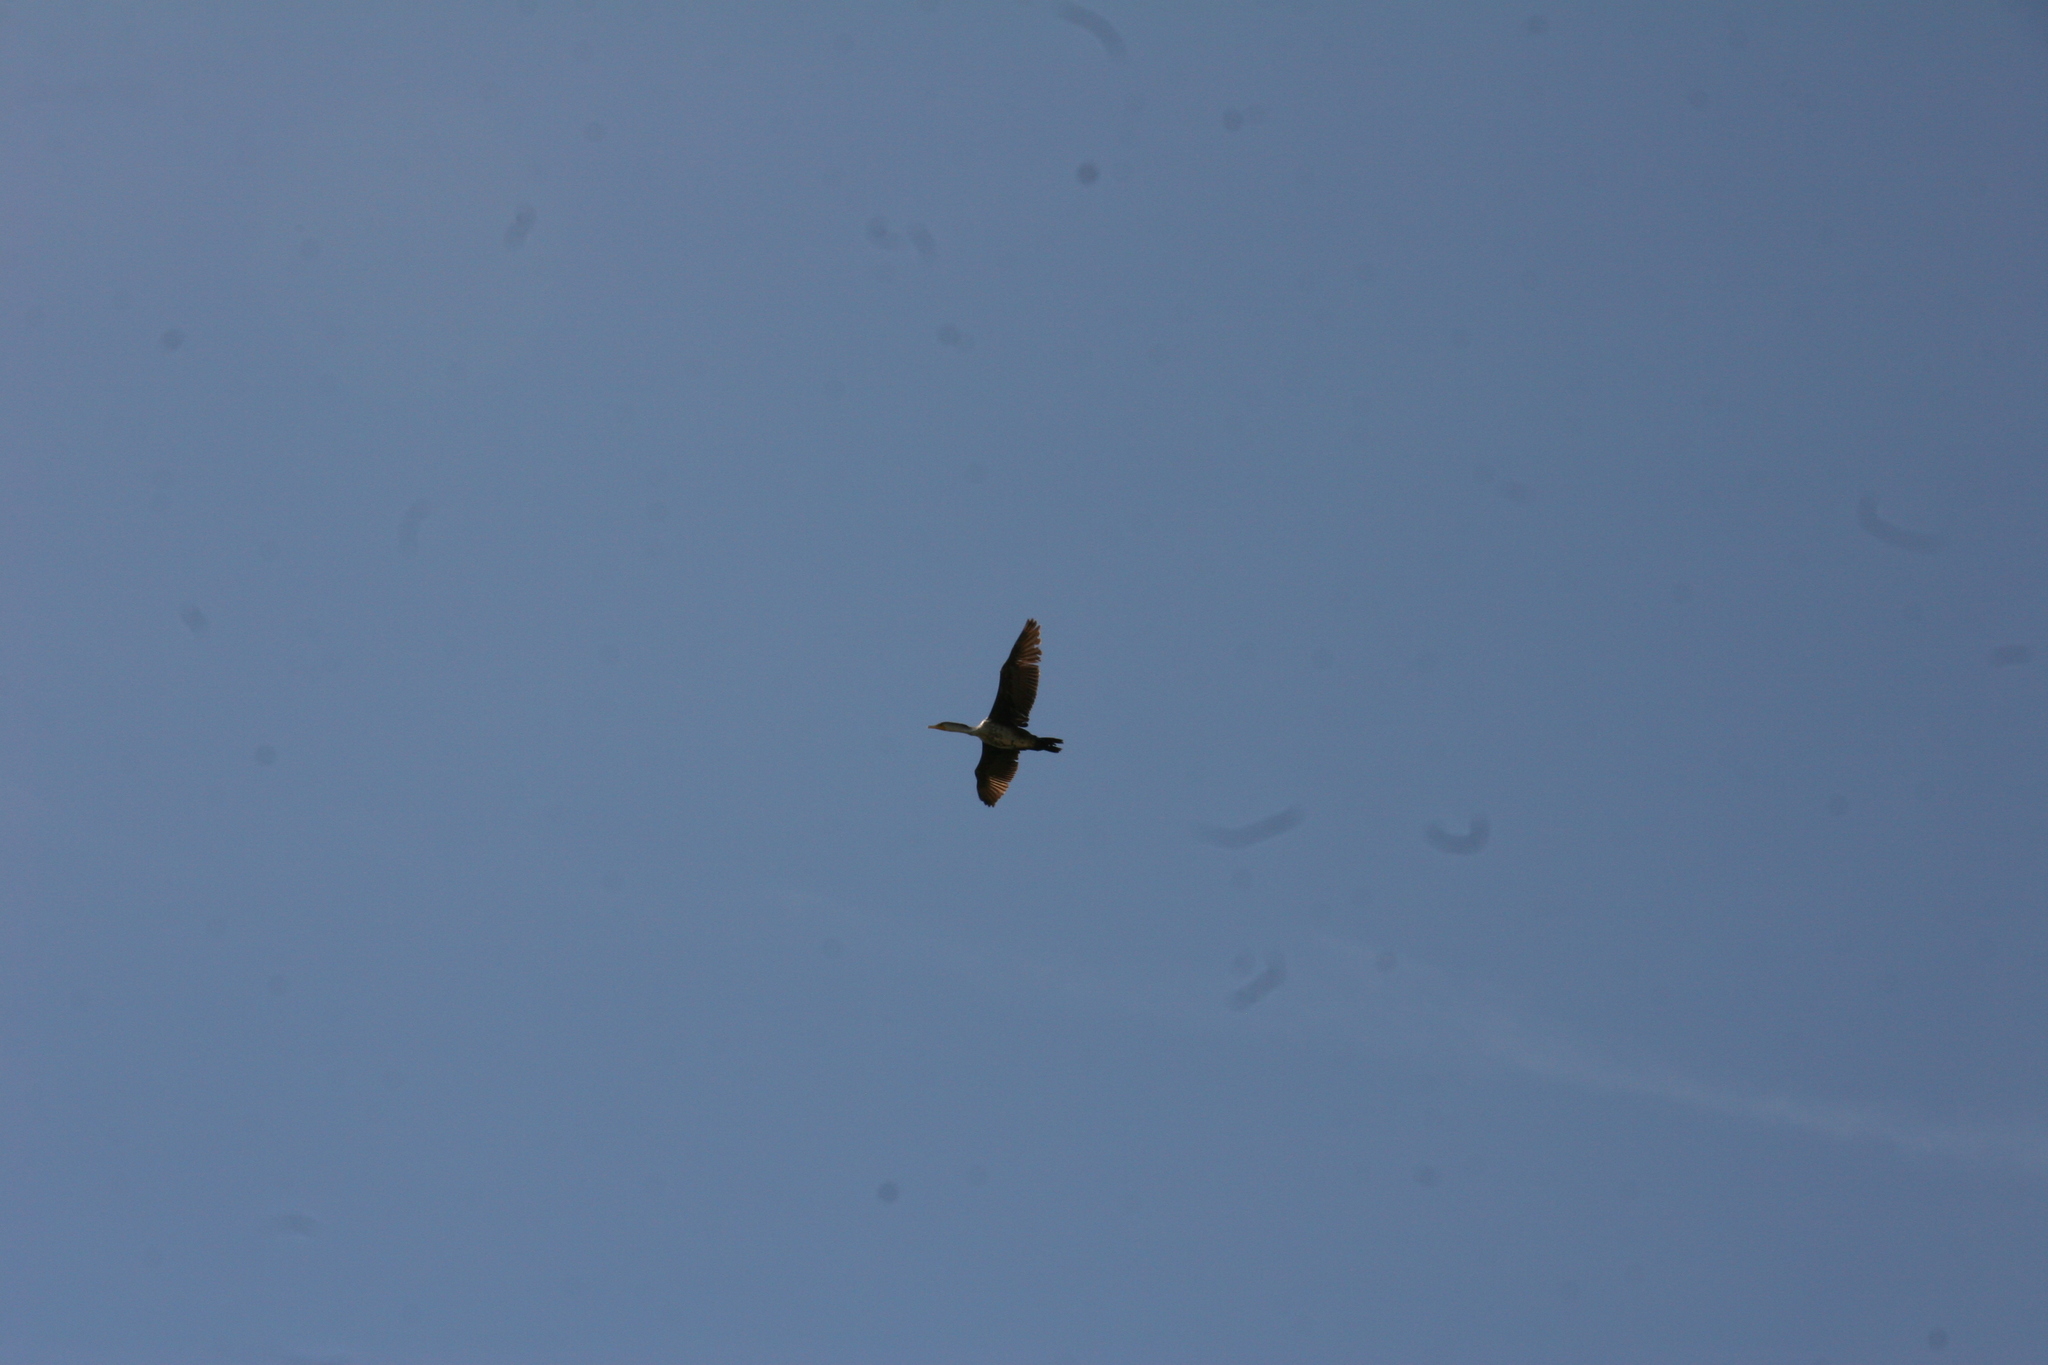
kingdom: Animalia
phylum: Chordata
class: Aves
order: Suliformes
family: Phalacrocoracidae
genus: Phalacrocorax
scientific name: Phalacrocorax auritus
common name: Double-crested cormorant
